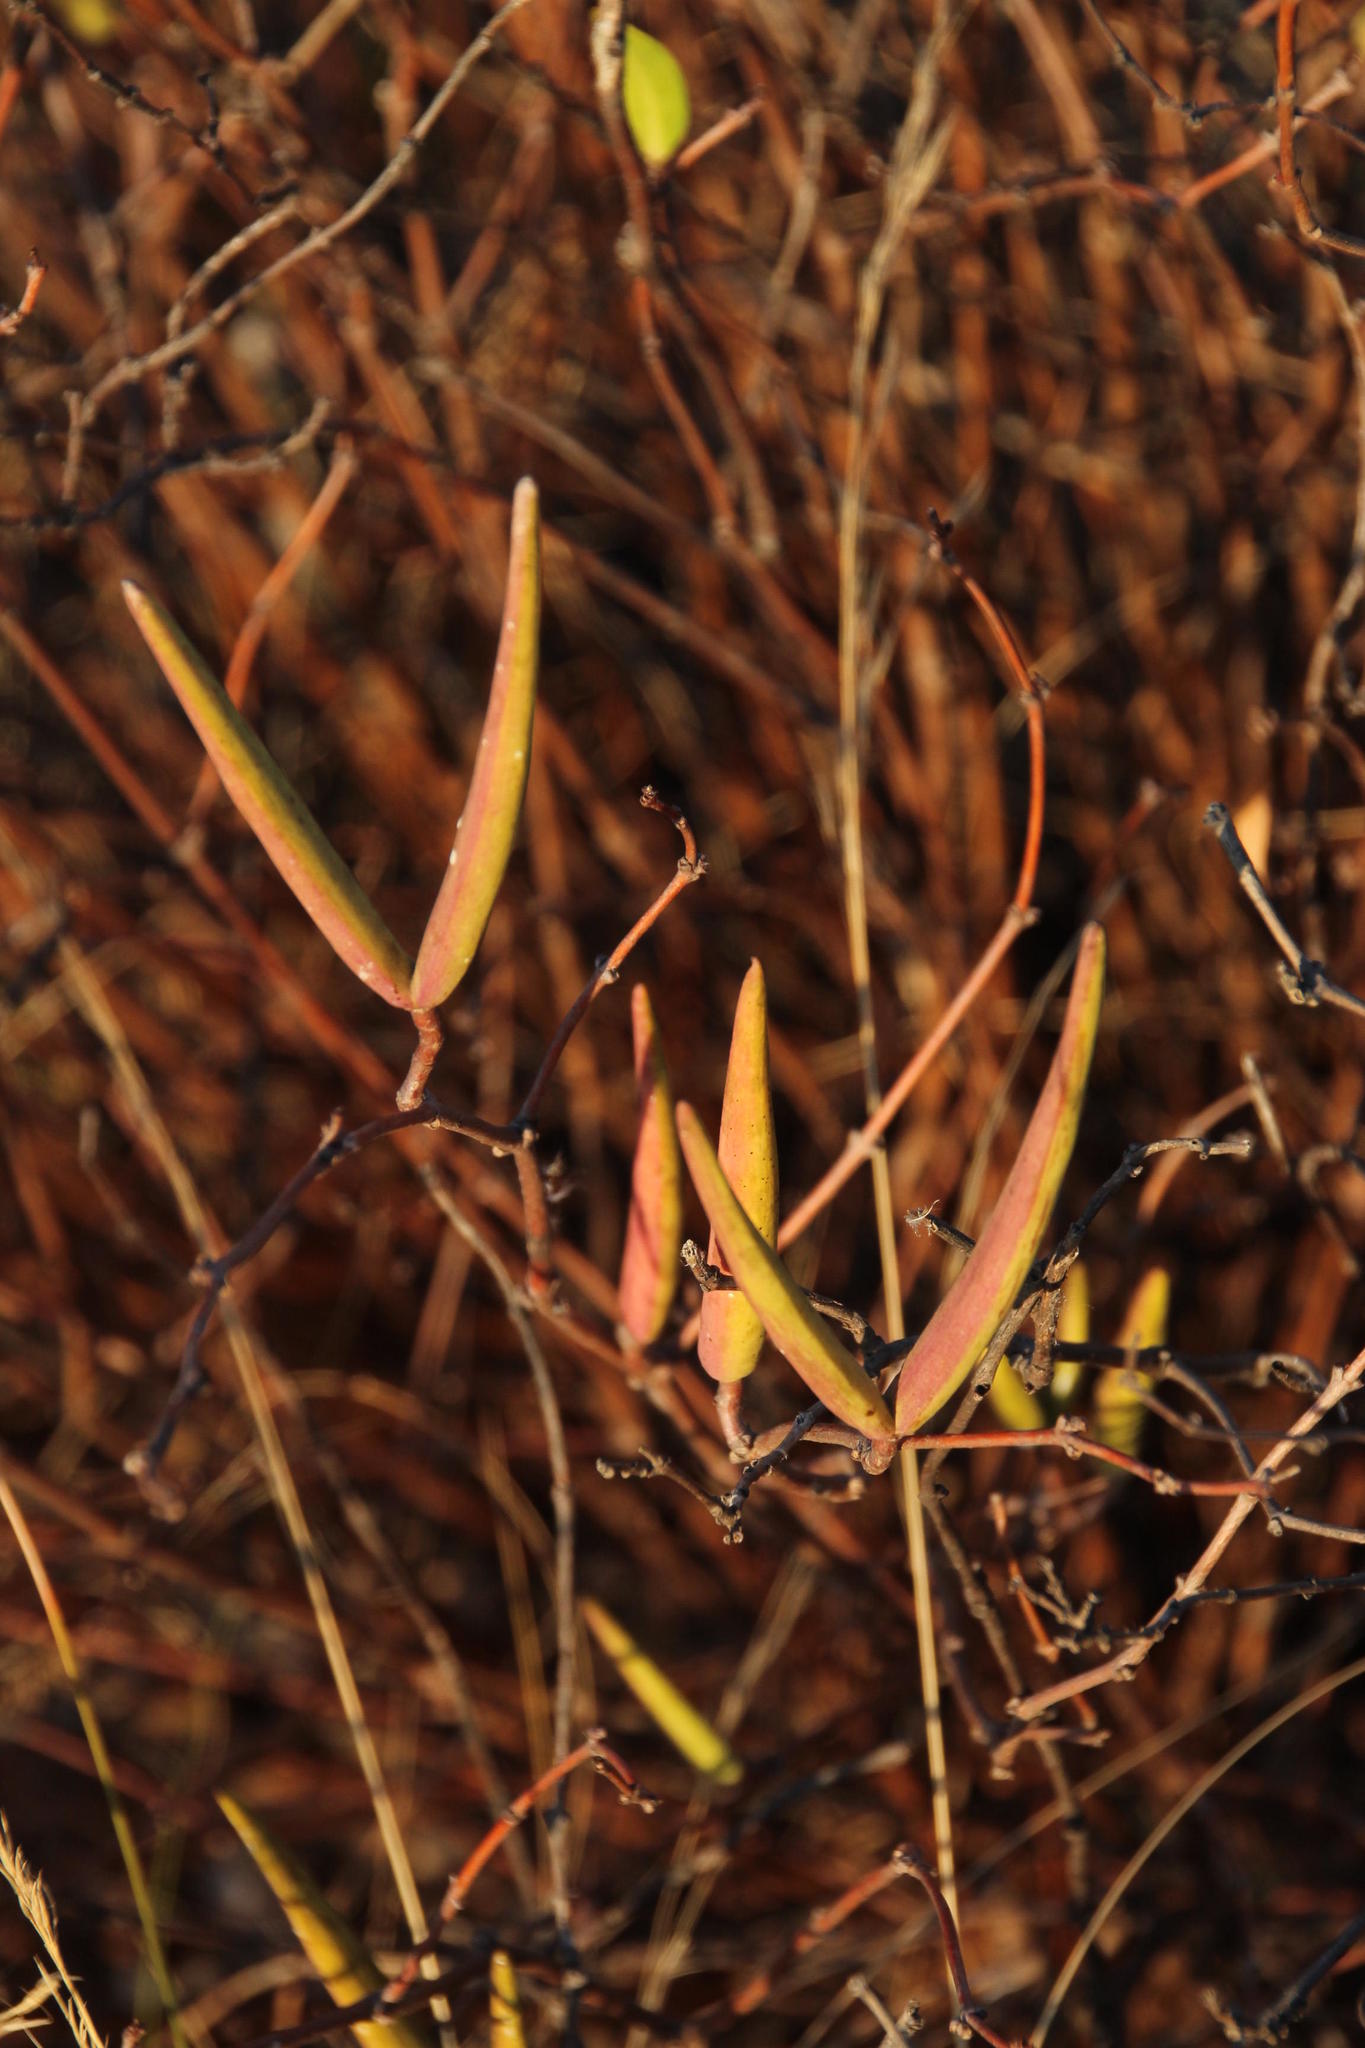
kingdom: Plantae
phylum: Tracheophyta
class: Magnoliopsida
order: Gentianales
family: Apocynaceae
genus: Cryptolepis
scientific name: Cryptolepis oblongifolia
